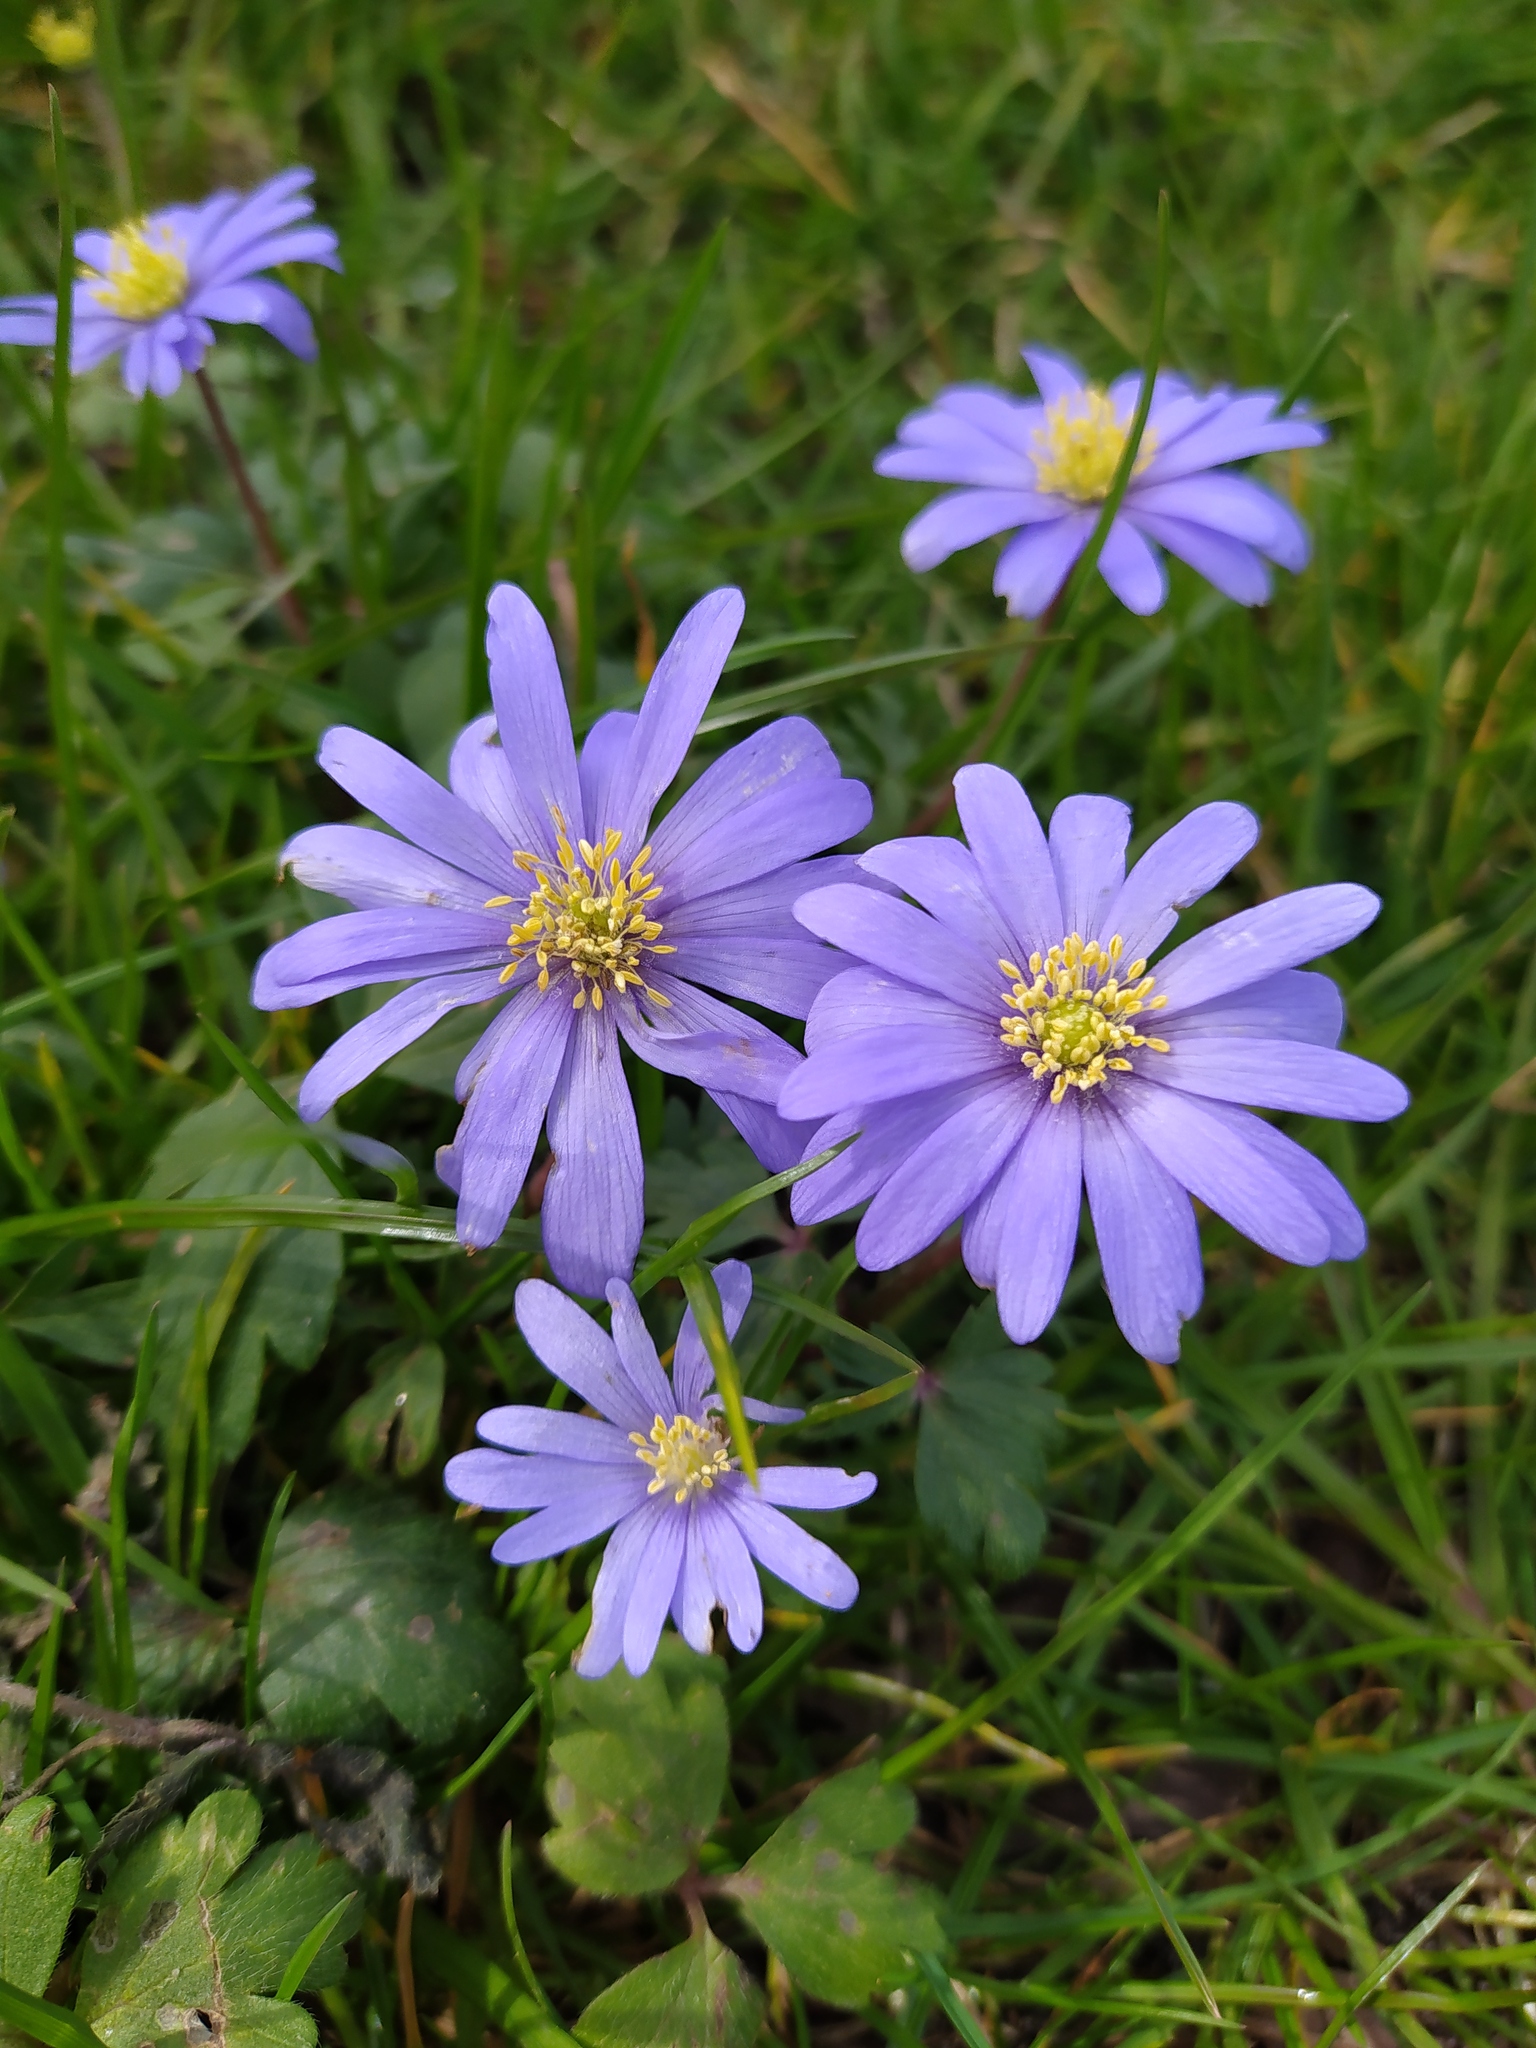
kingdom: Plantae
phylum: Tracheophyta
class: Magnoliopsida
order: Ranunculales
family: Ranunculaceae
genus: Anemone
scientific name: Anemone blanda
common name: Balkan anemone
